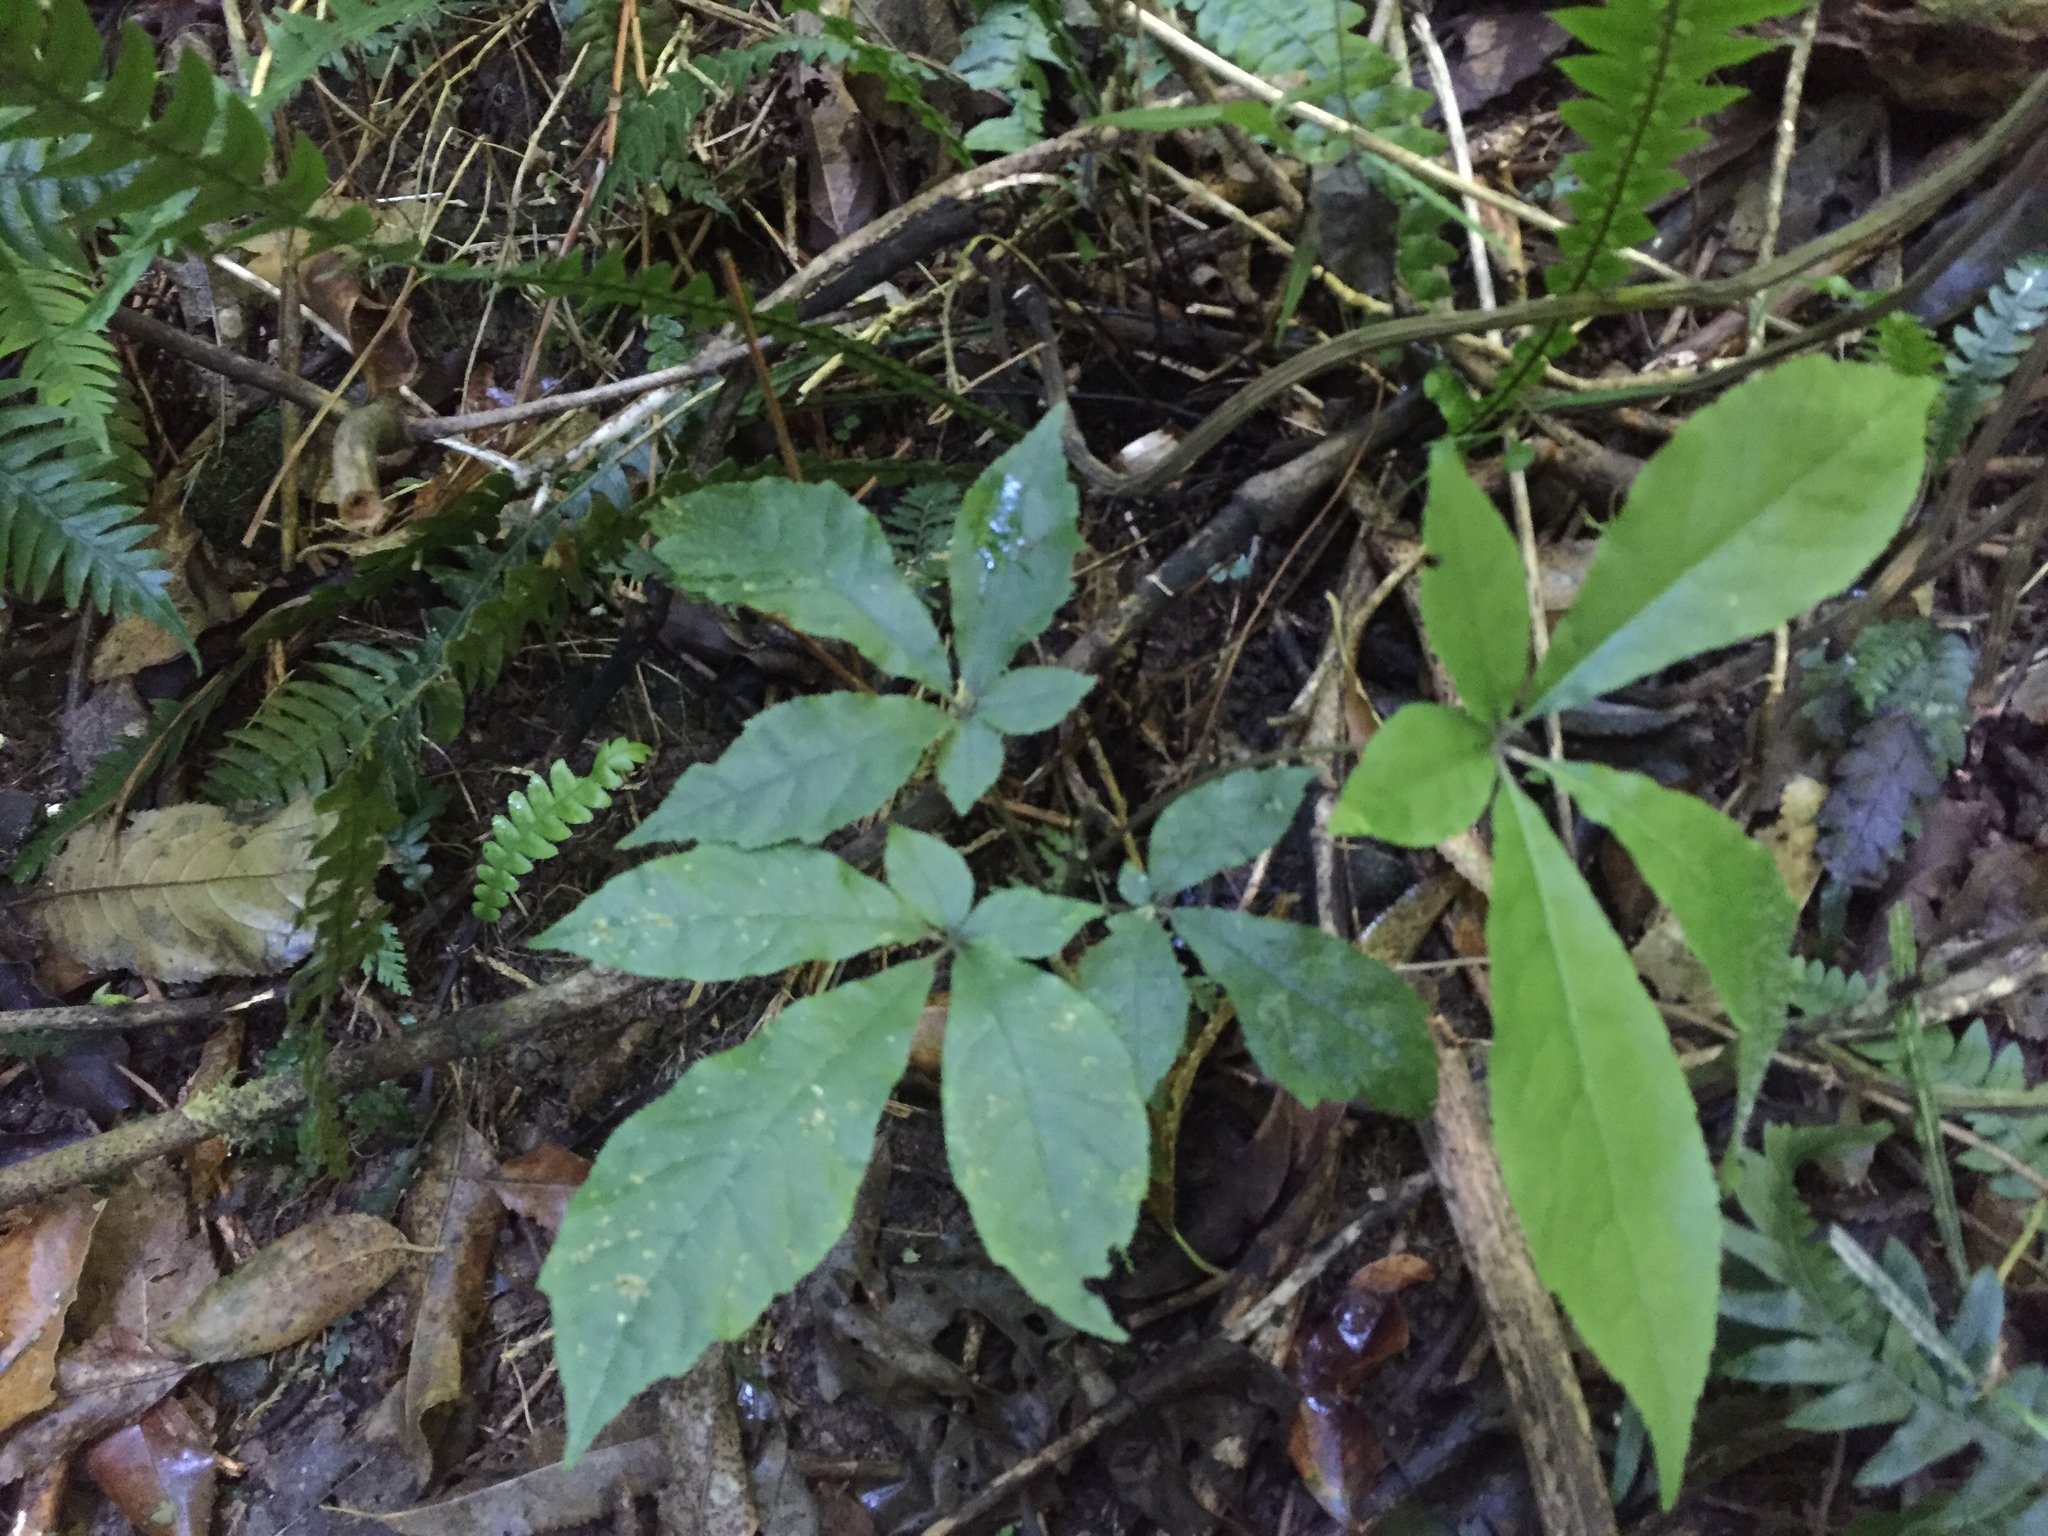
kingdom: Plantae
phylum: Tracheophyta
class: Magnoliopsida
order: Apiales
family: Araliaceae
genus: Schefflera
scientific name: Schefflera digitata
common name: Pate
